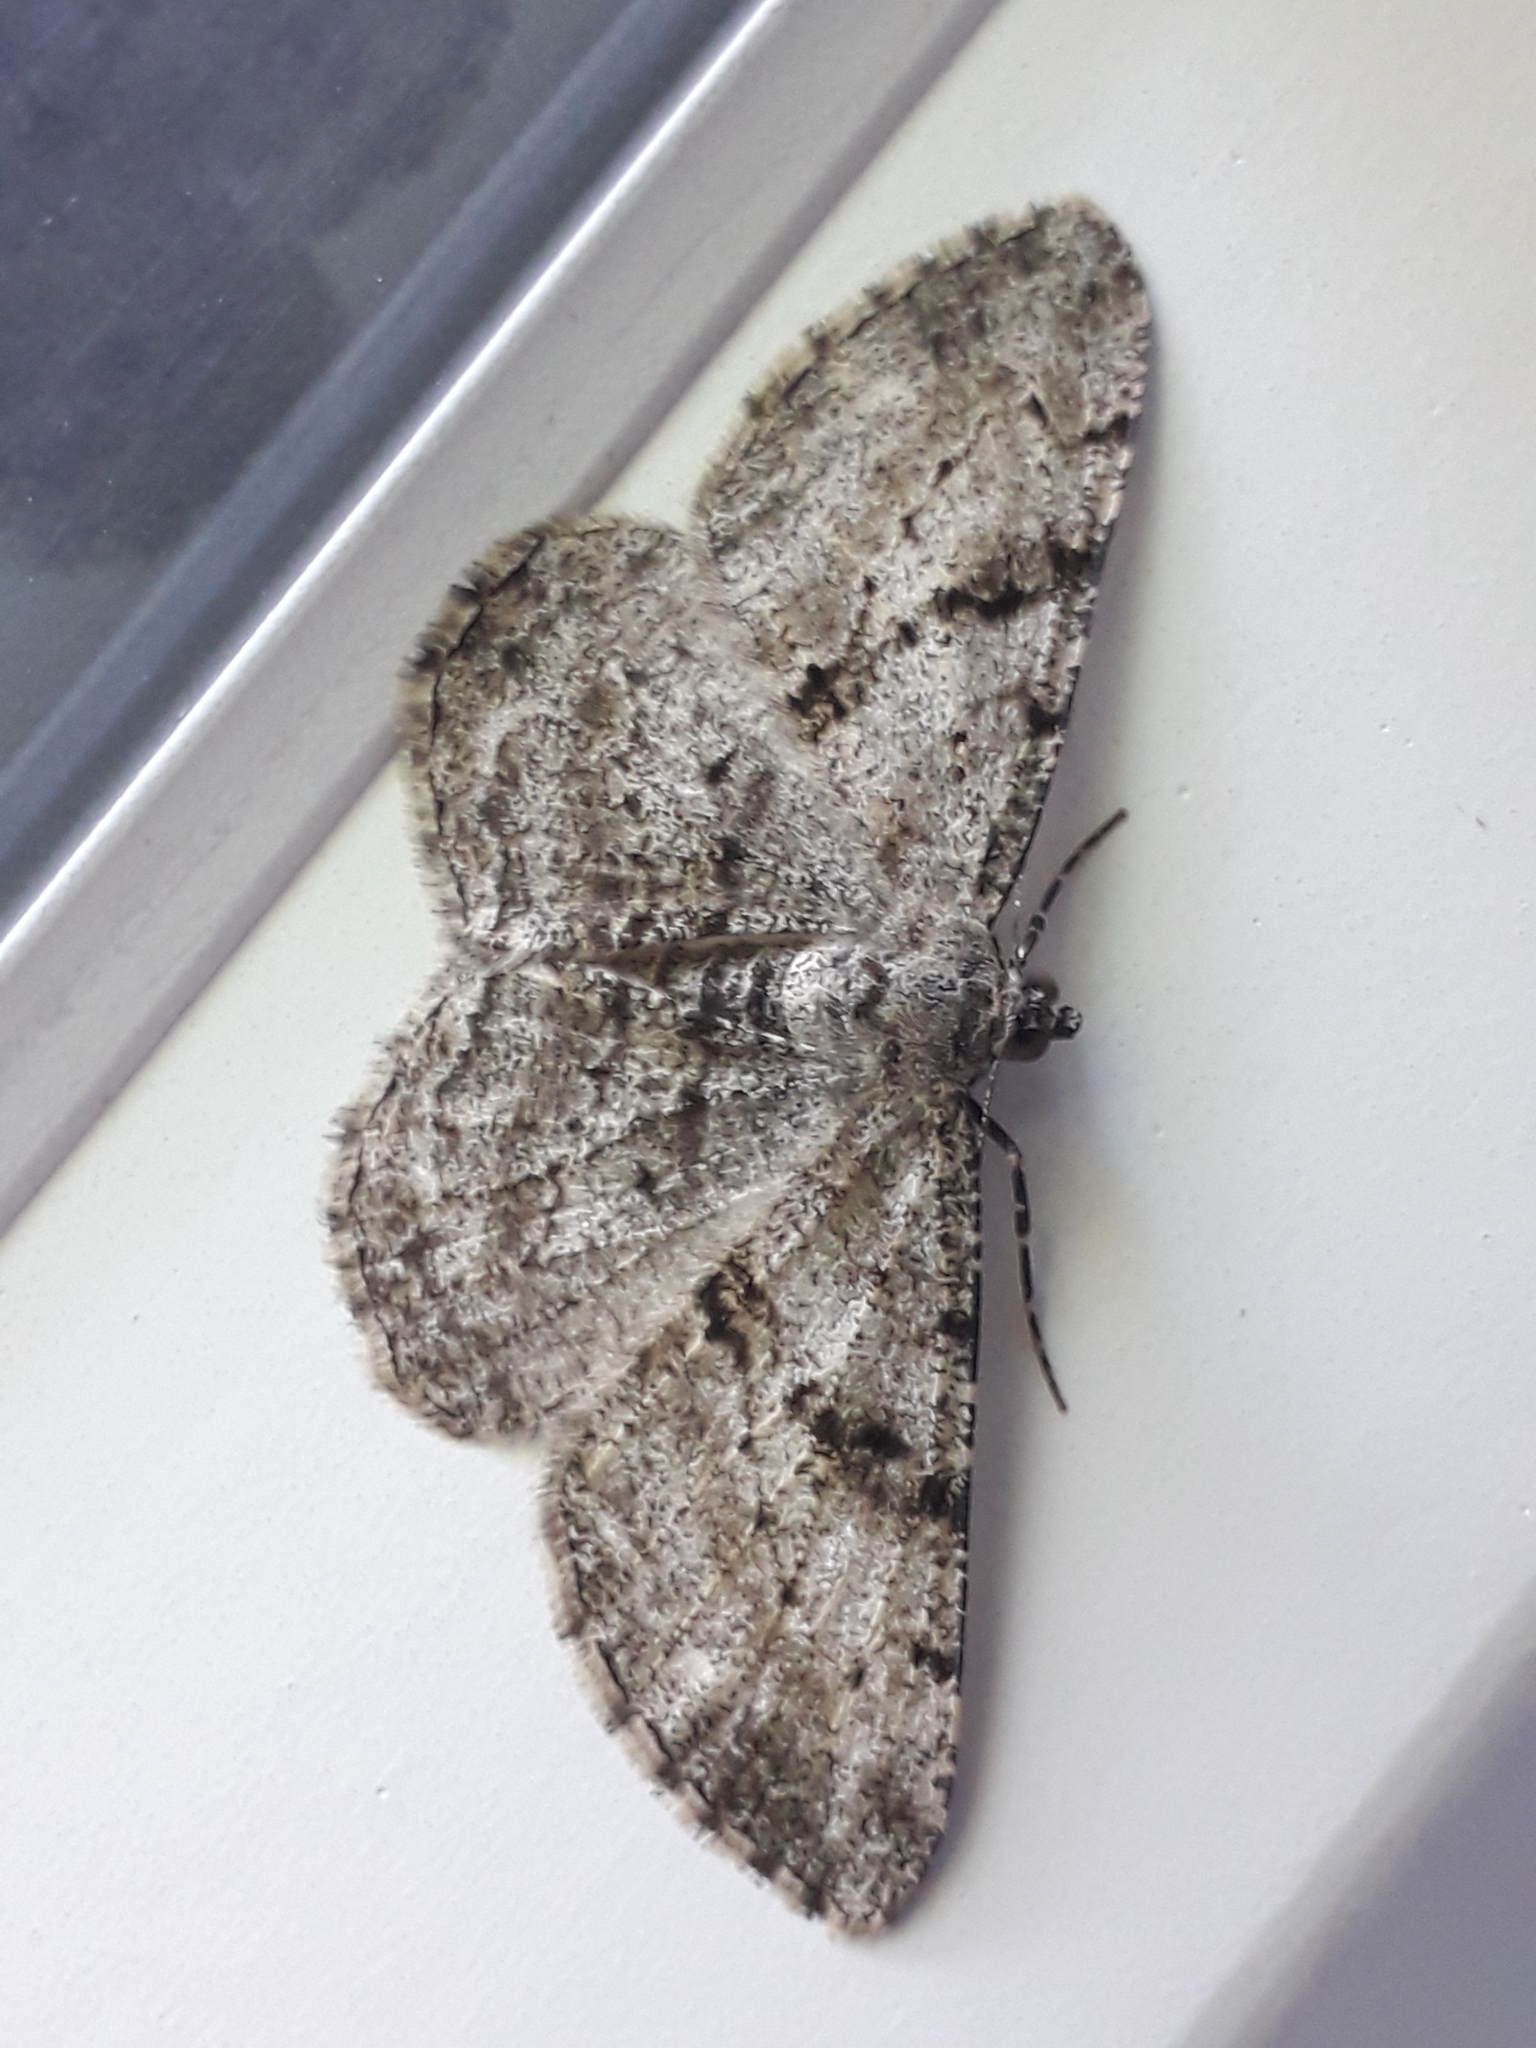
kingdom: Animalia
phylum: Arthropoda
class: Insecta
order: Lepidoptera
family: Geometridae
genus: Peribatodes
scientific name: Peribatodes rhomboidaria
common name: Willow beauty
